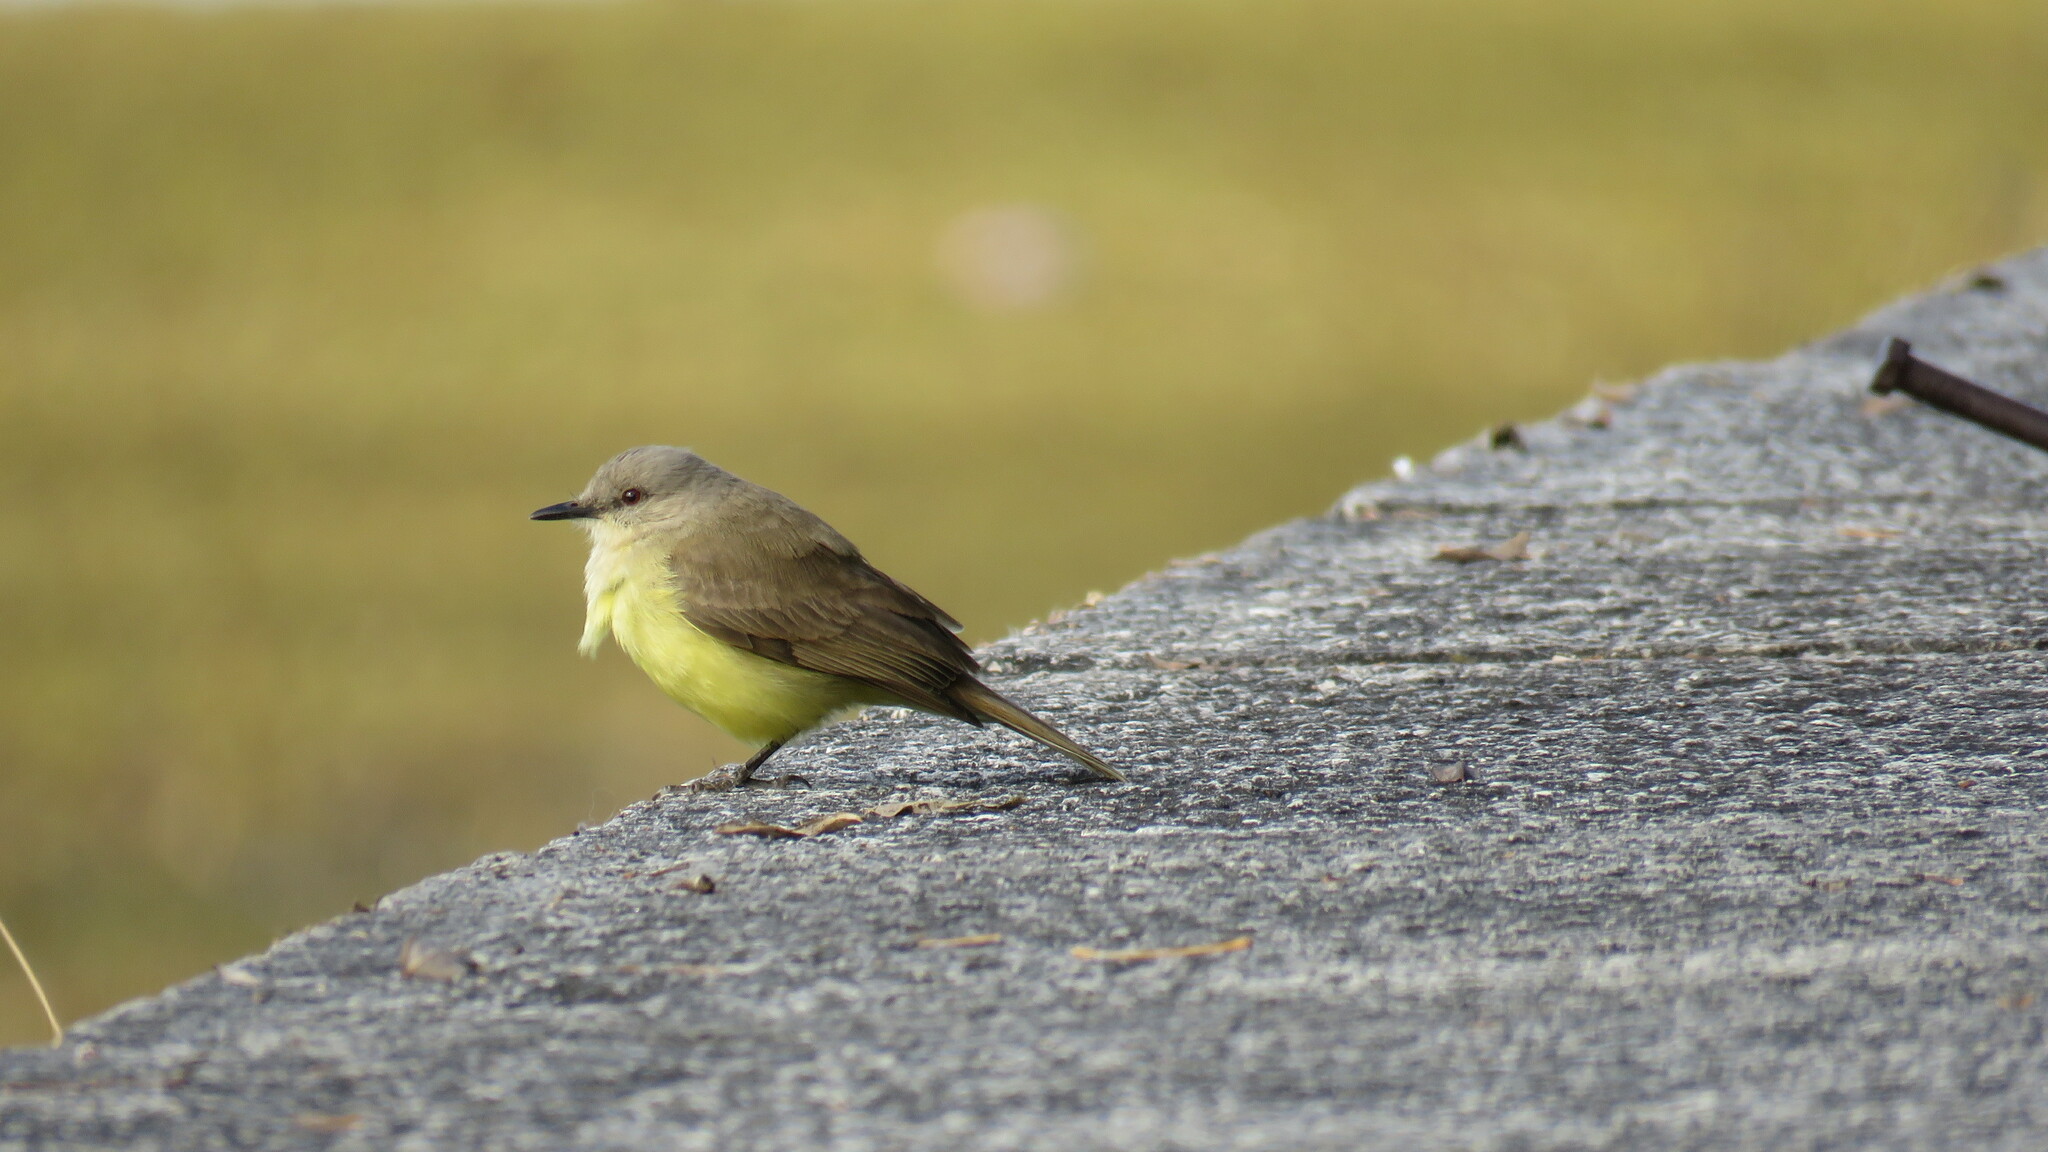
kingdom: Animalia
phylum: Chordata
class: Aves
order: Passeriformes
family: Tyrannidae
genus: Machetornis
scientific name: Machetornis rixosa
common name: Cattle tyrant
